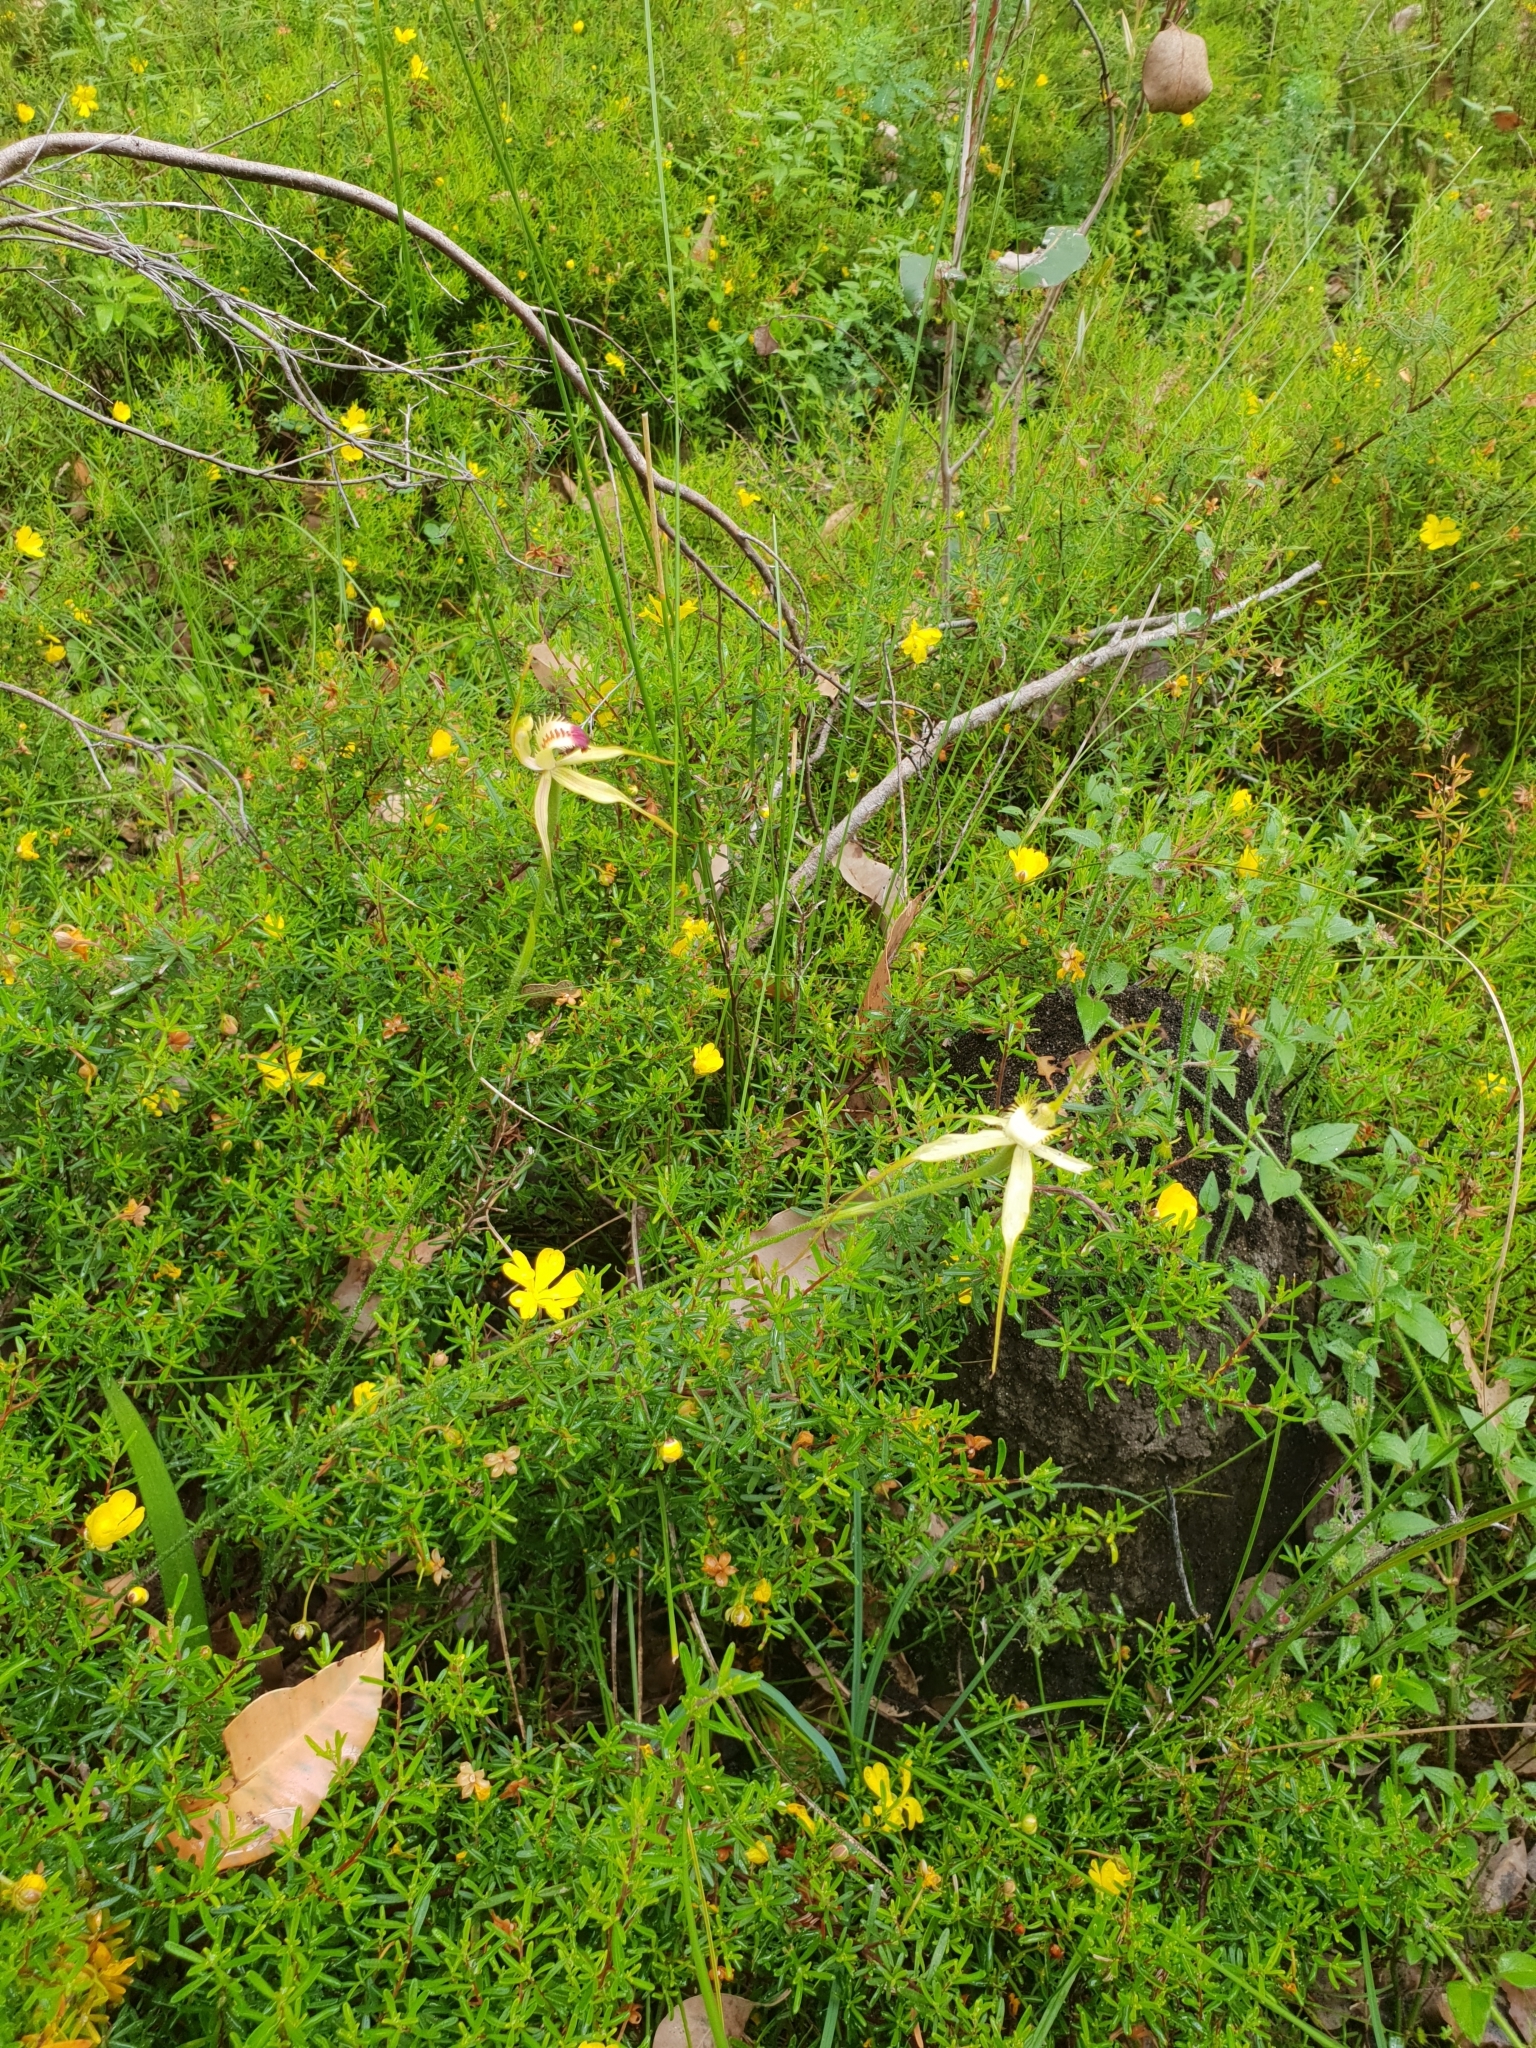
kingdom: Plantae
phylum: Tracheophyta
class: Liliopsida
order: Asparagales
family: Orchidaceae
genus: Caladenia
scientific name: Caladenia citrina
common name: Margaret river spider orchid
